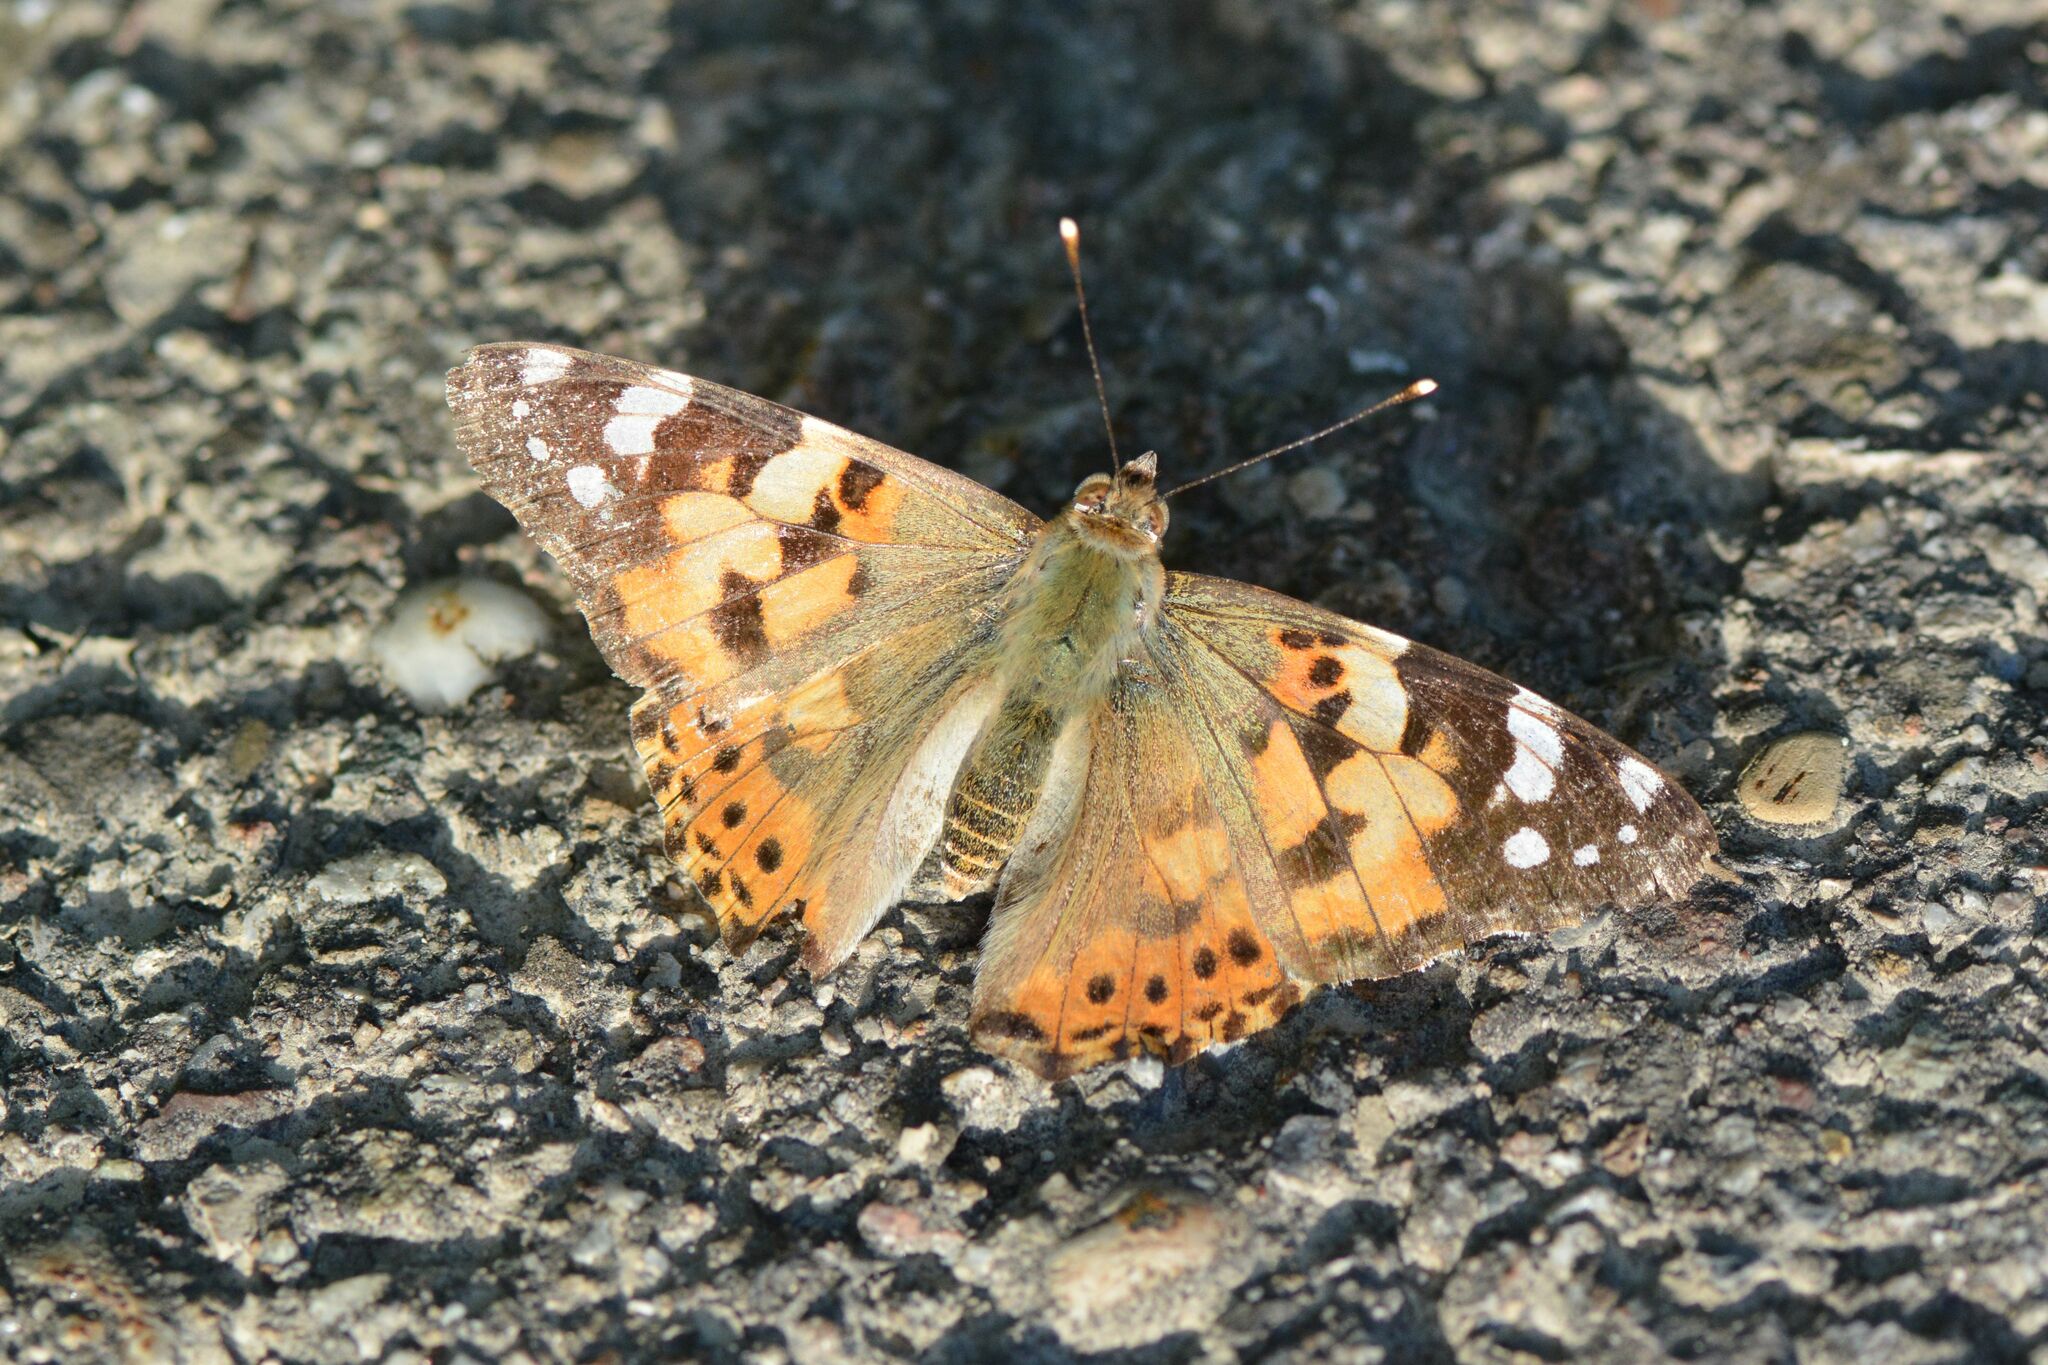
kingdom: Animalia
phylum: Arthropoda
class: Insecta
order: Lepidoptera
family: Nymphalidae
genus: Vanessa
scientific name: Vanessa cardui
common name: Painted lady
